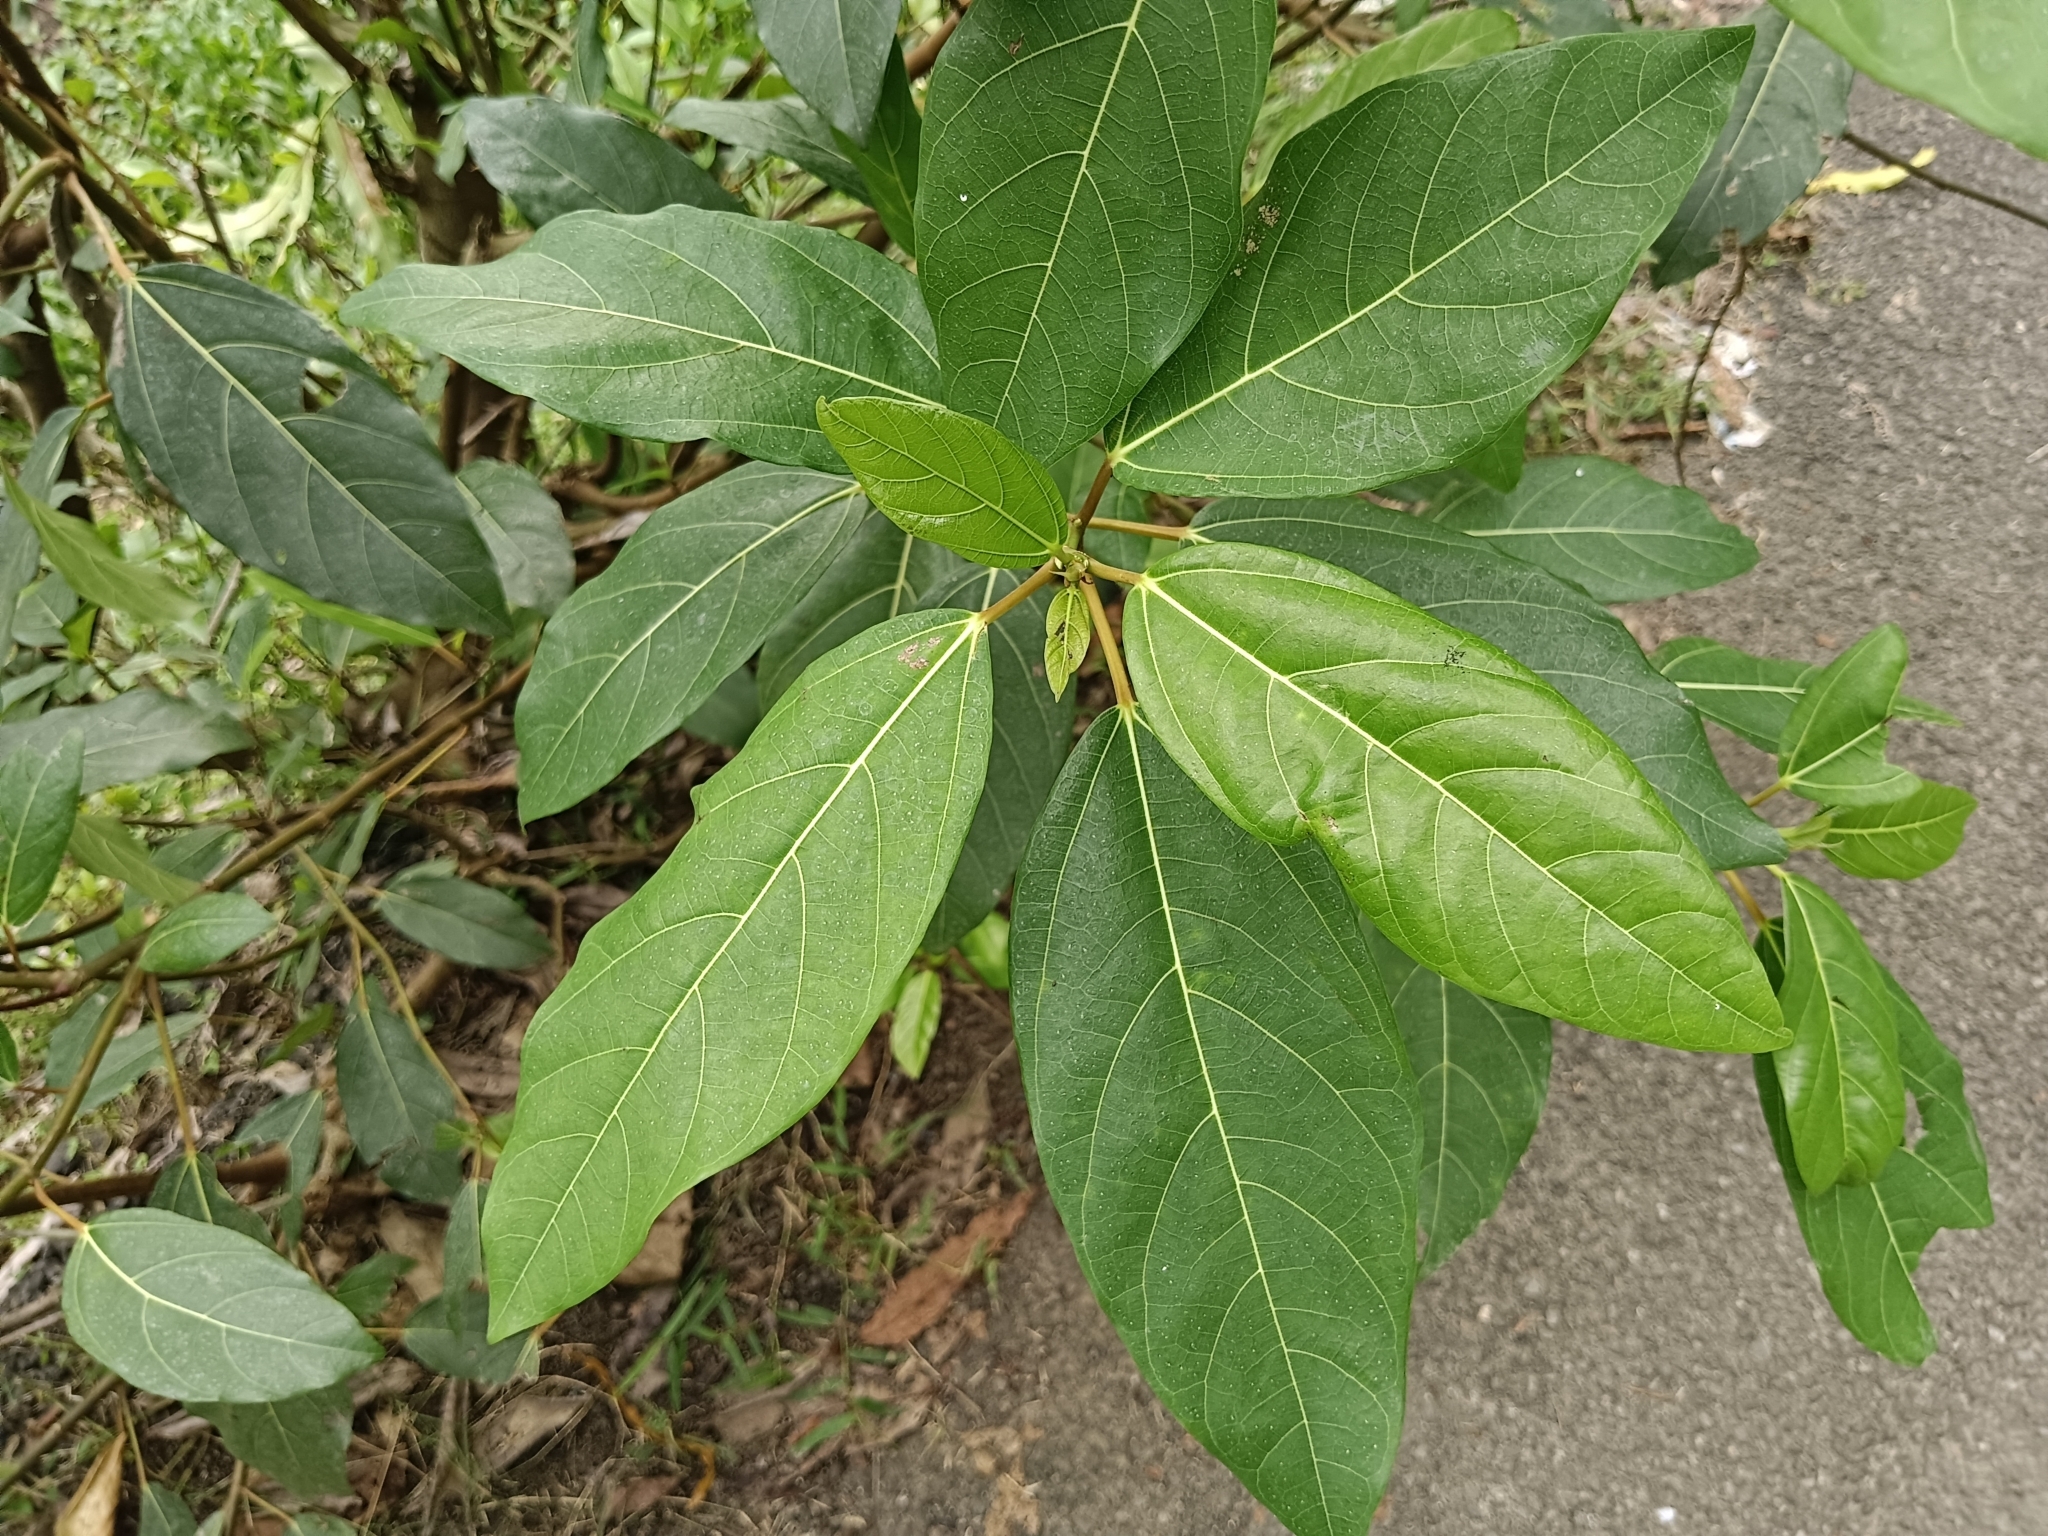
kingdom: Plantae
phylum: Tracheophyta
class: Magnoliopsida
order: Rosales
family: Moraceae
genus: Ficus
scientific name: Ficus racemosa
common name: Cluster fig
